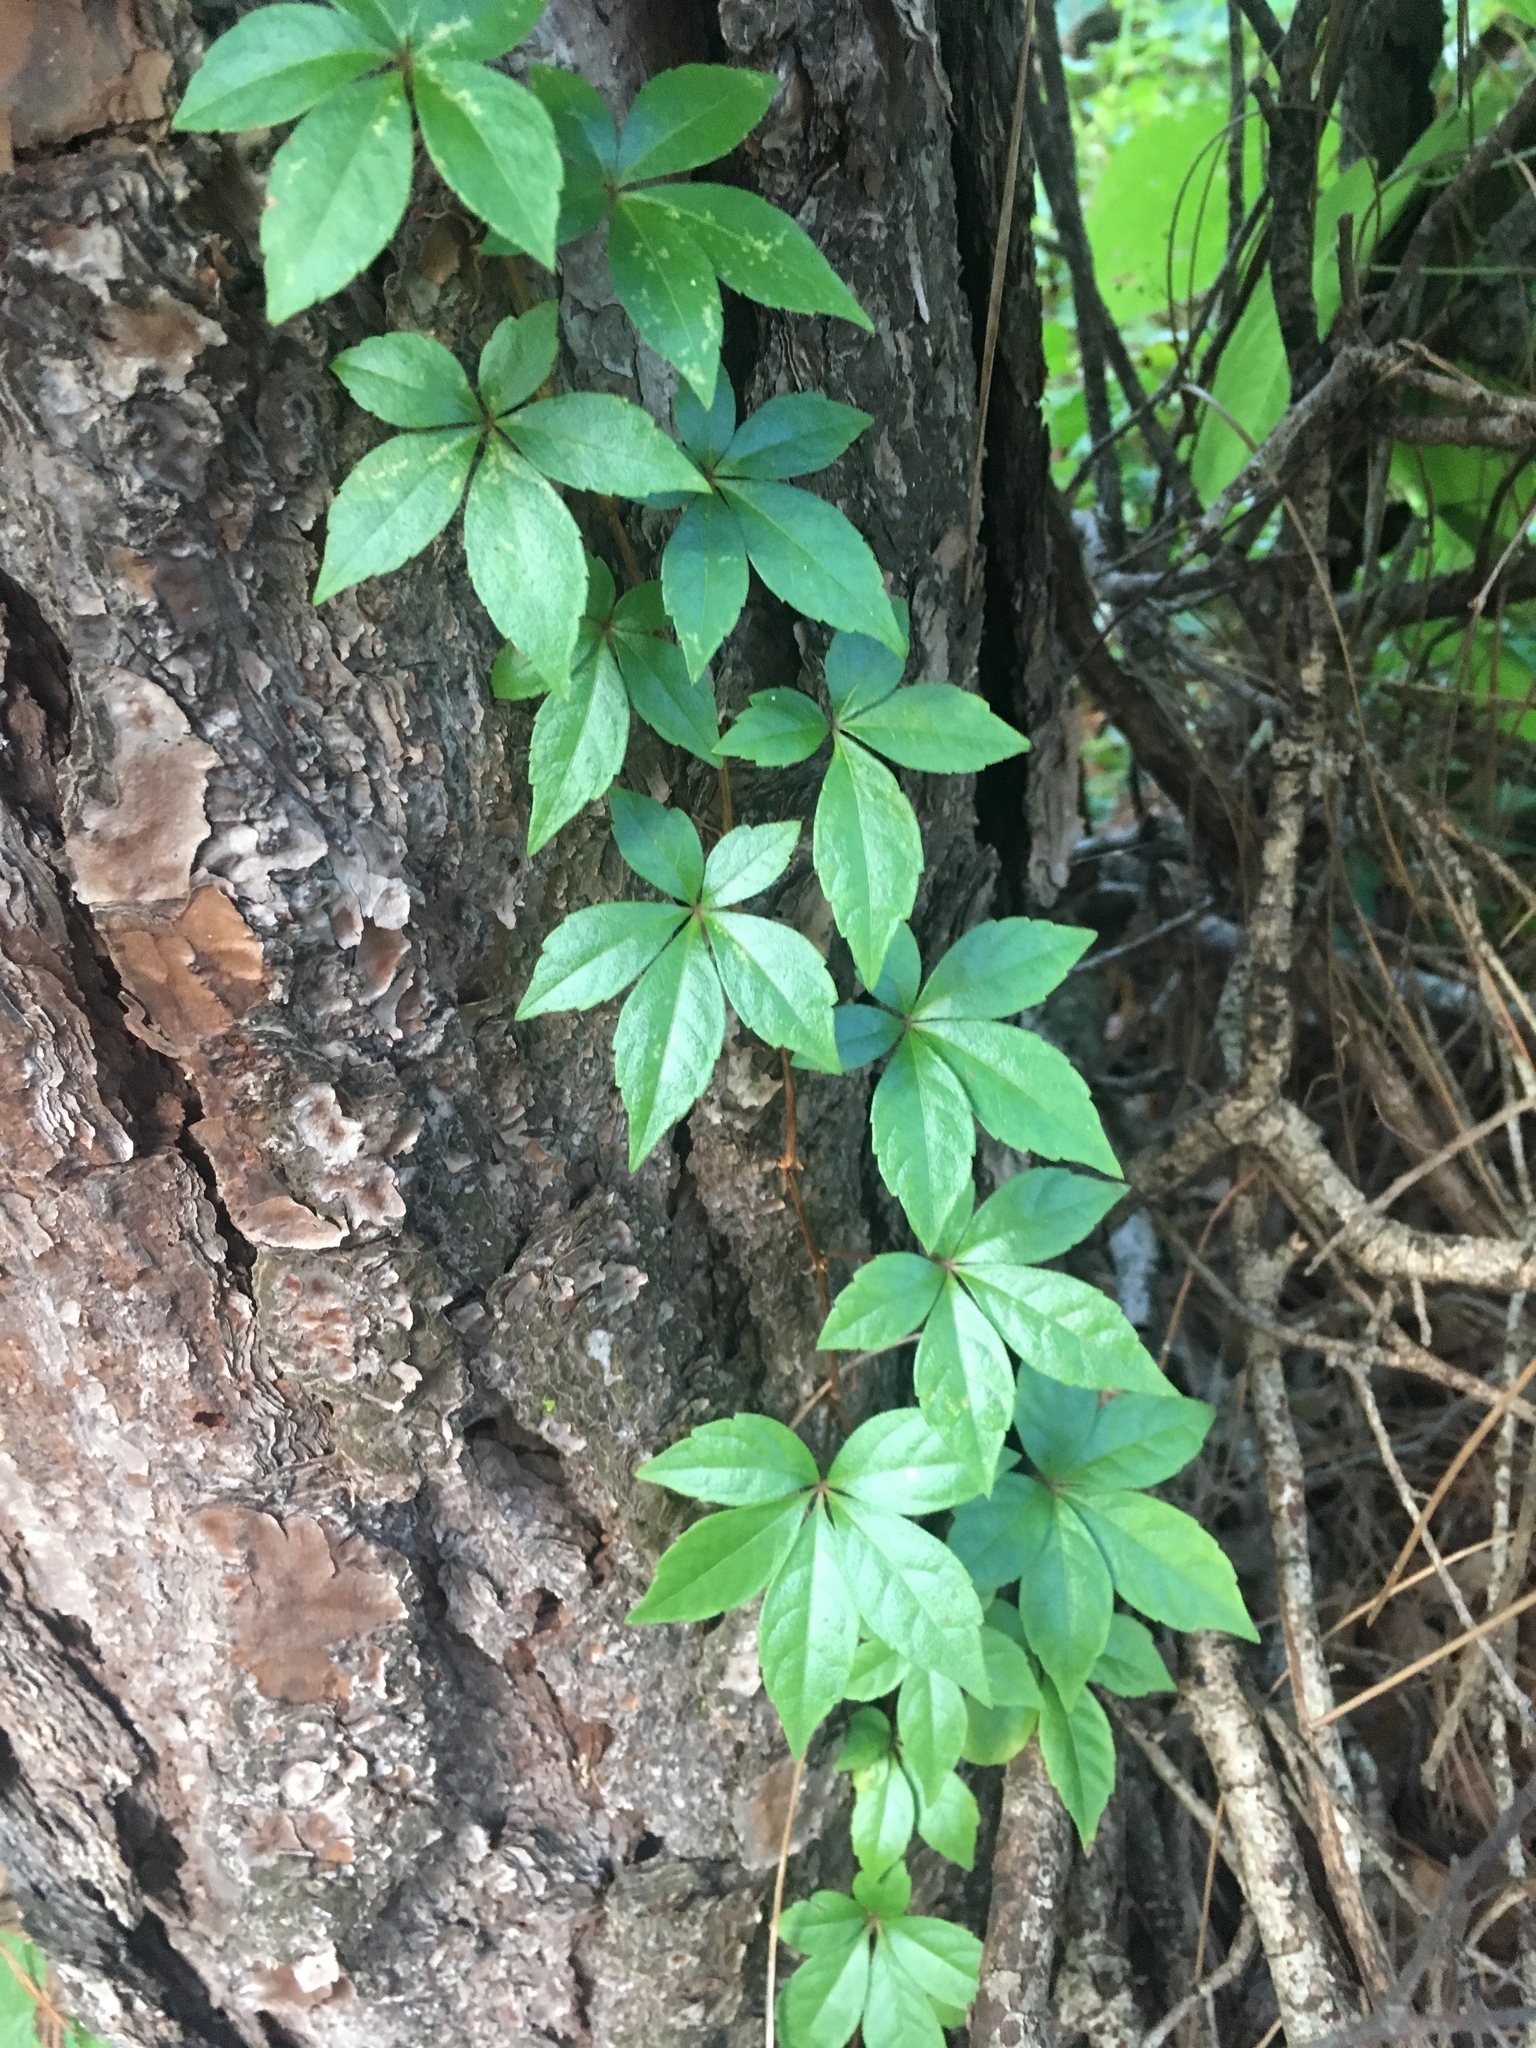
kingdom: Plantae
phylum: Tracheophyta
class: Magnoliopsida
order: Vitales
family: Vitaceae
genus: Parthenocissus
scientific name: Parthenocissus quinquefolia
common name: Virginia-creeper
